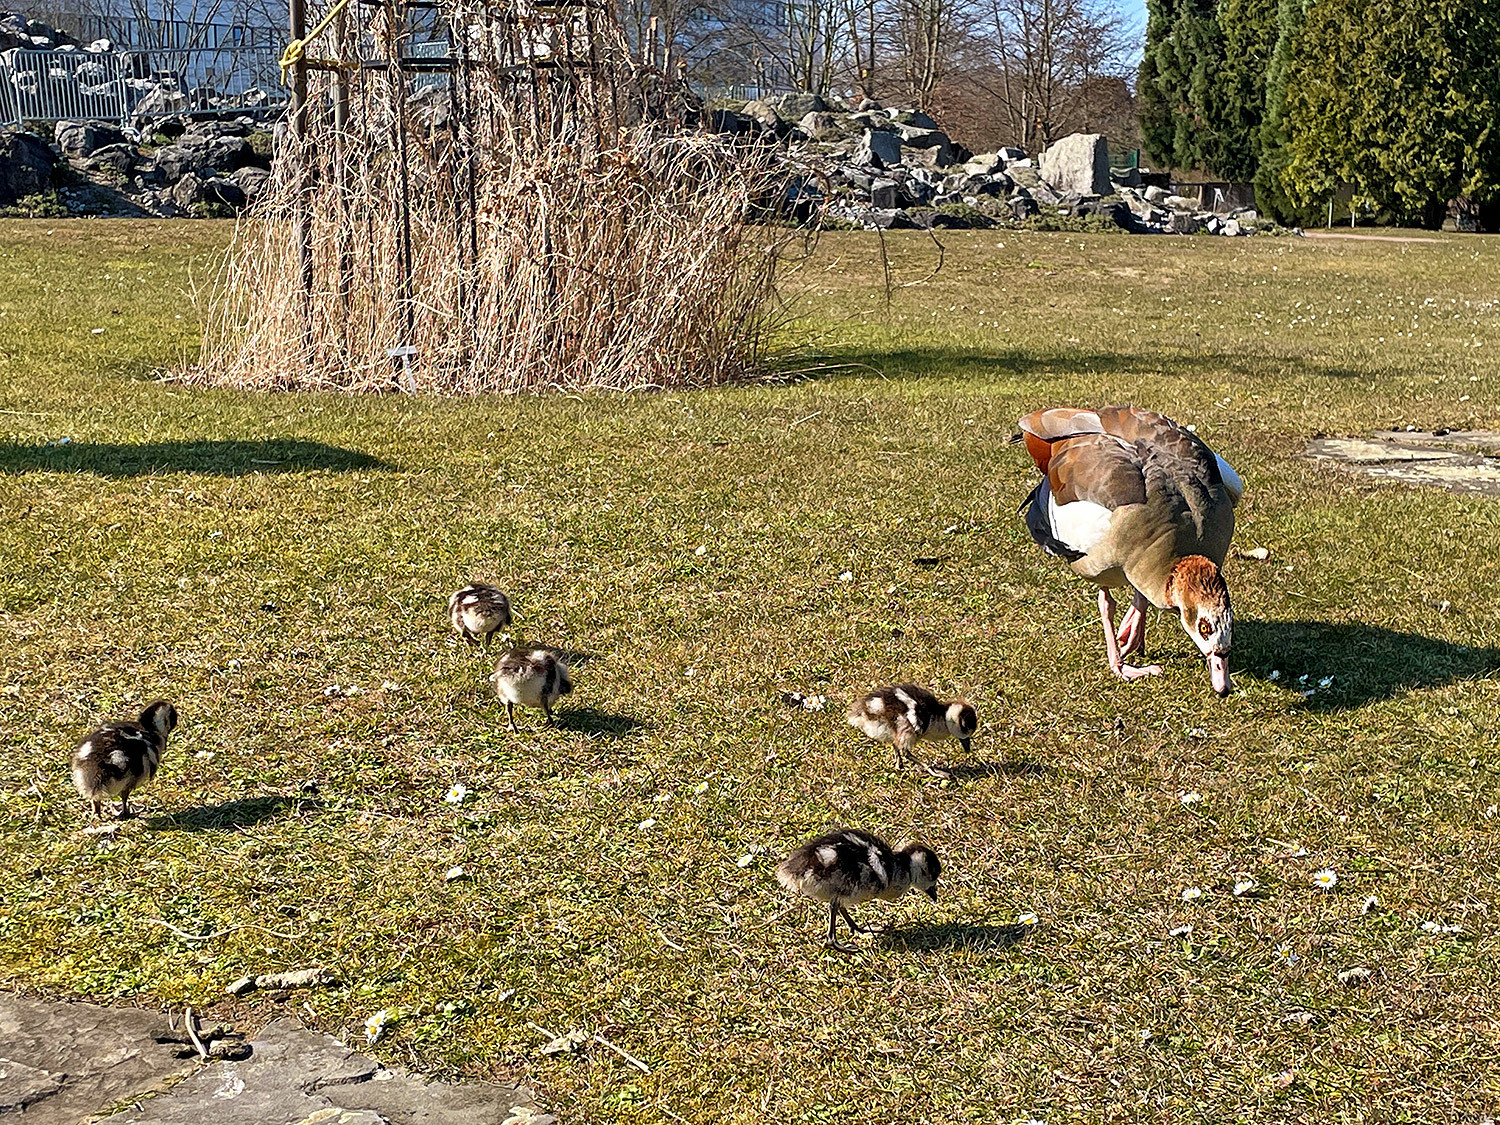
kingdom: Animalia
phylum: Chordata
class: Aves
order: Anseriformes
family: Anatidae
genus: Alopochen
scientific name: Alopochen aegyptiaca
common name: Egyptian goose
